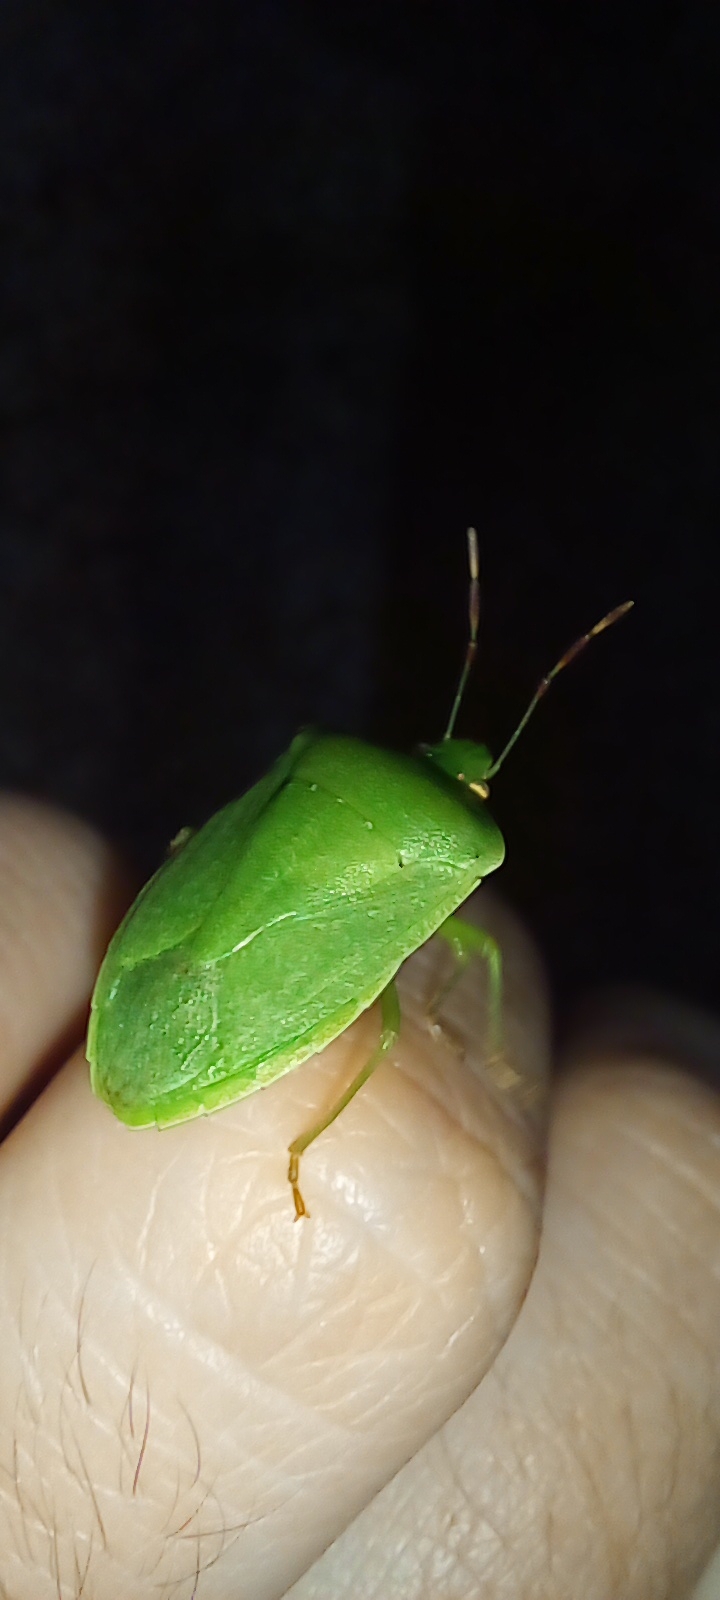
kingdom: Animalia
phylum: Arthropoda
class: Insecta
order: Hemiptera
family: Pentatomidae
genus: Nezara
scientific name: Nezara viridula
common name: Southern green stink bug
